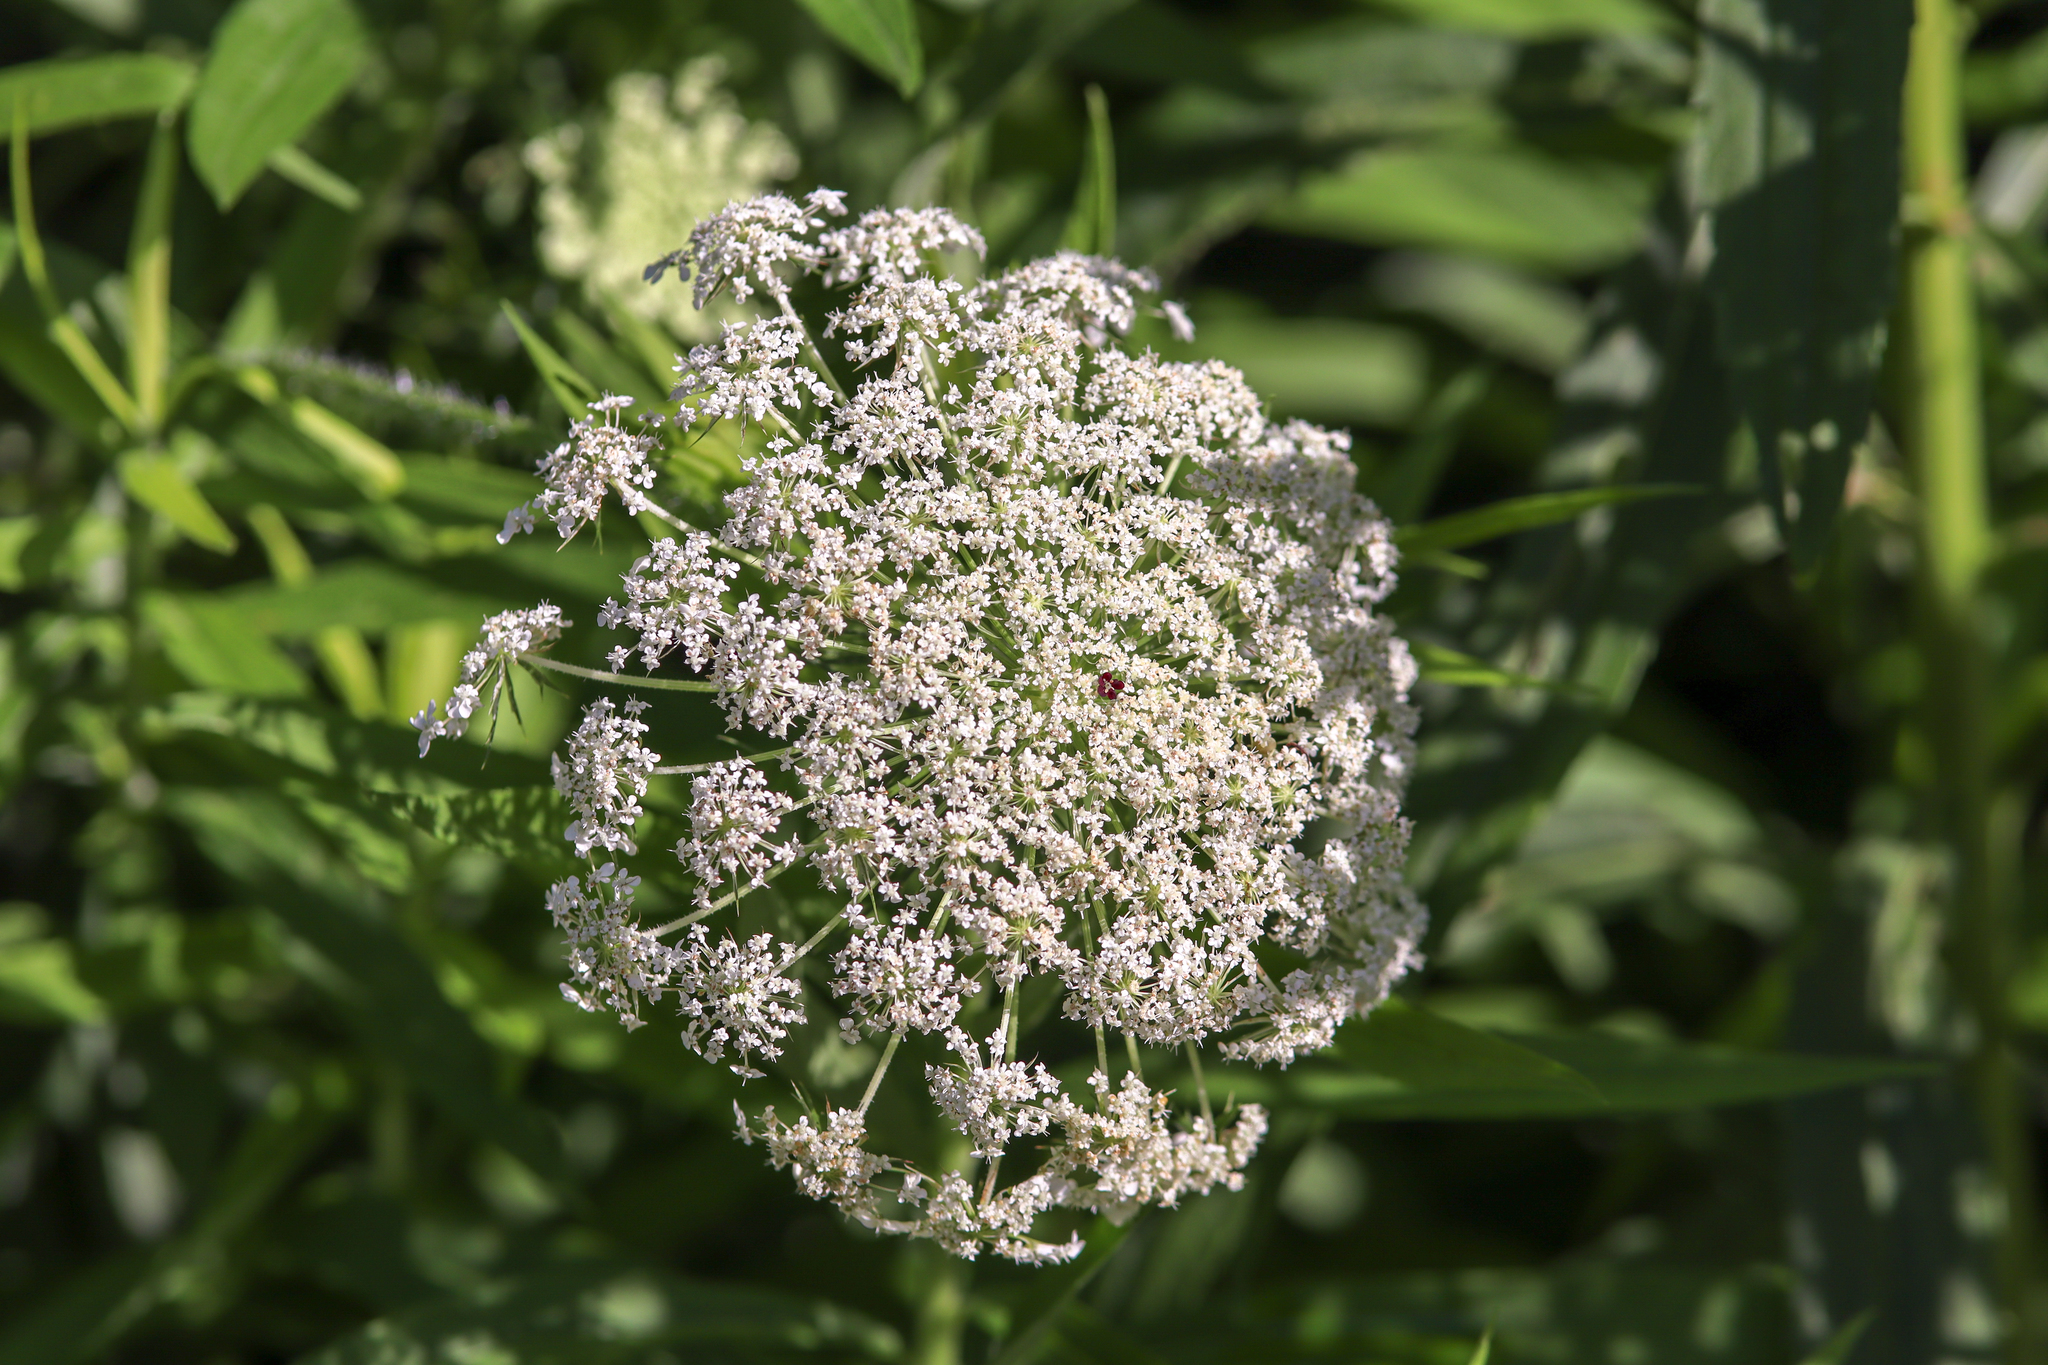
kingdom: Plantae
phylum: Tracheophyta
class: Magnoliopsida
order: Apiales
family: Apiaceae
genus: Daucus
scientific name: Daucus carota
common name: Wild carrot
